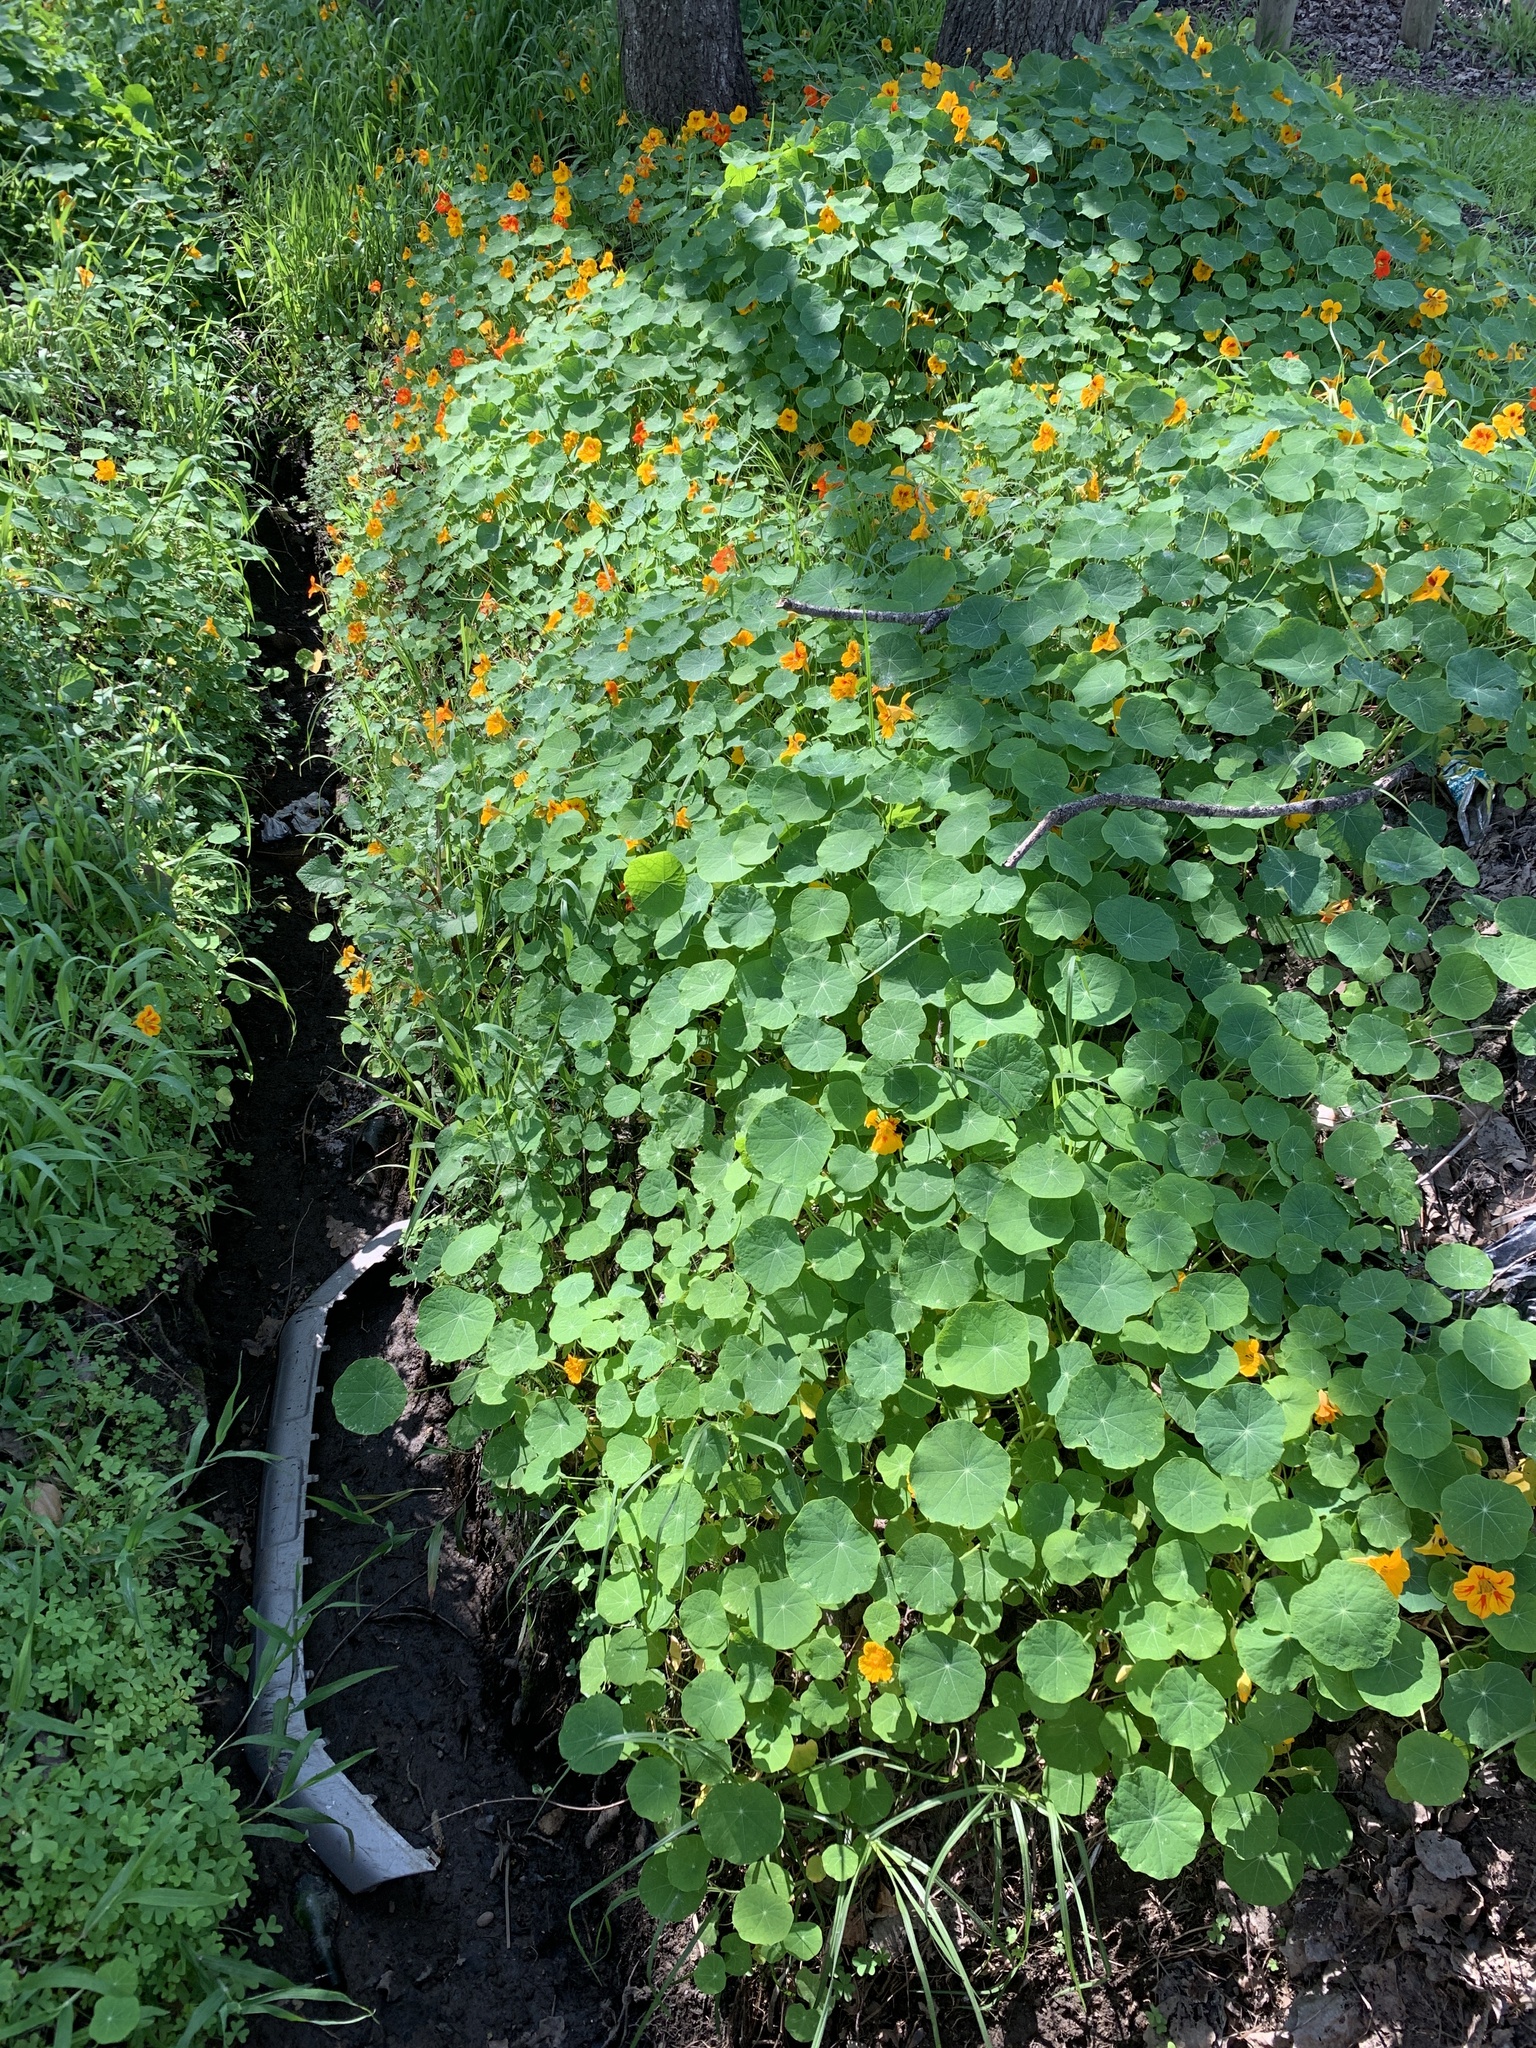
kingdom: Plantae
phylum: Tracheophyta
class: Magnoliopsida
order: Brassicales
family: Tropaeolaceae
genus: Tropaeolum
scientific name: Tropaeolum majus
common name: Nasturtium
